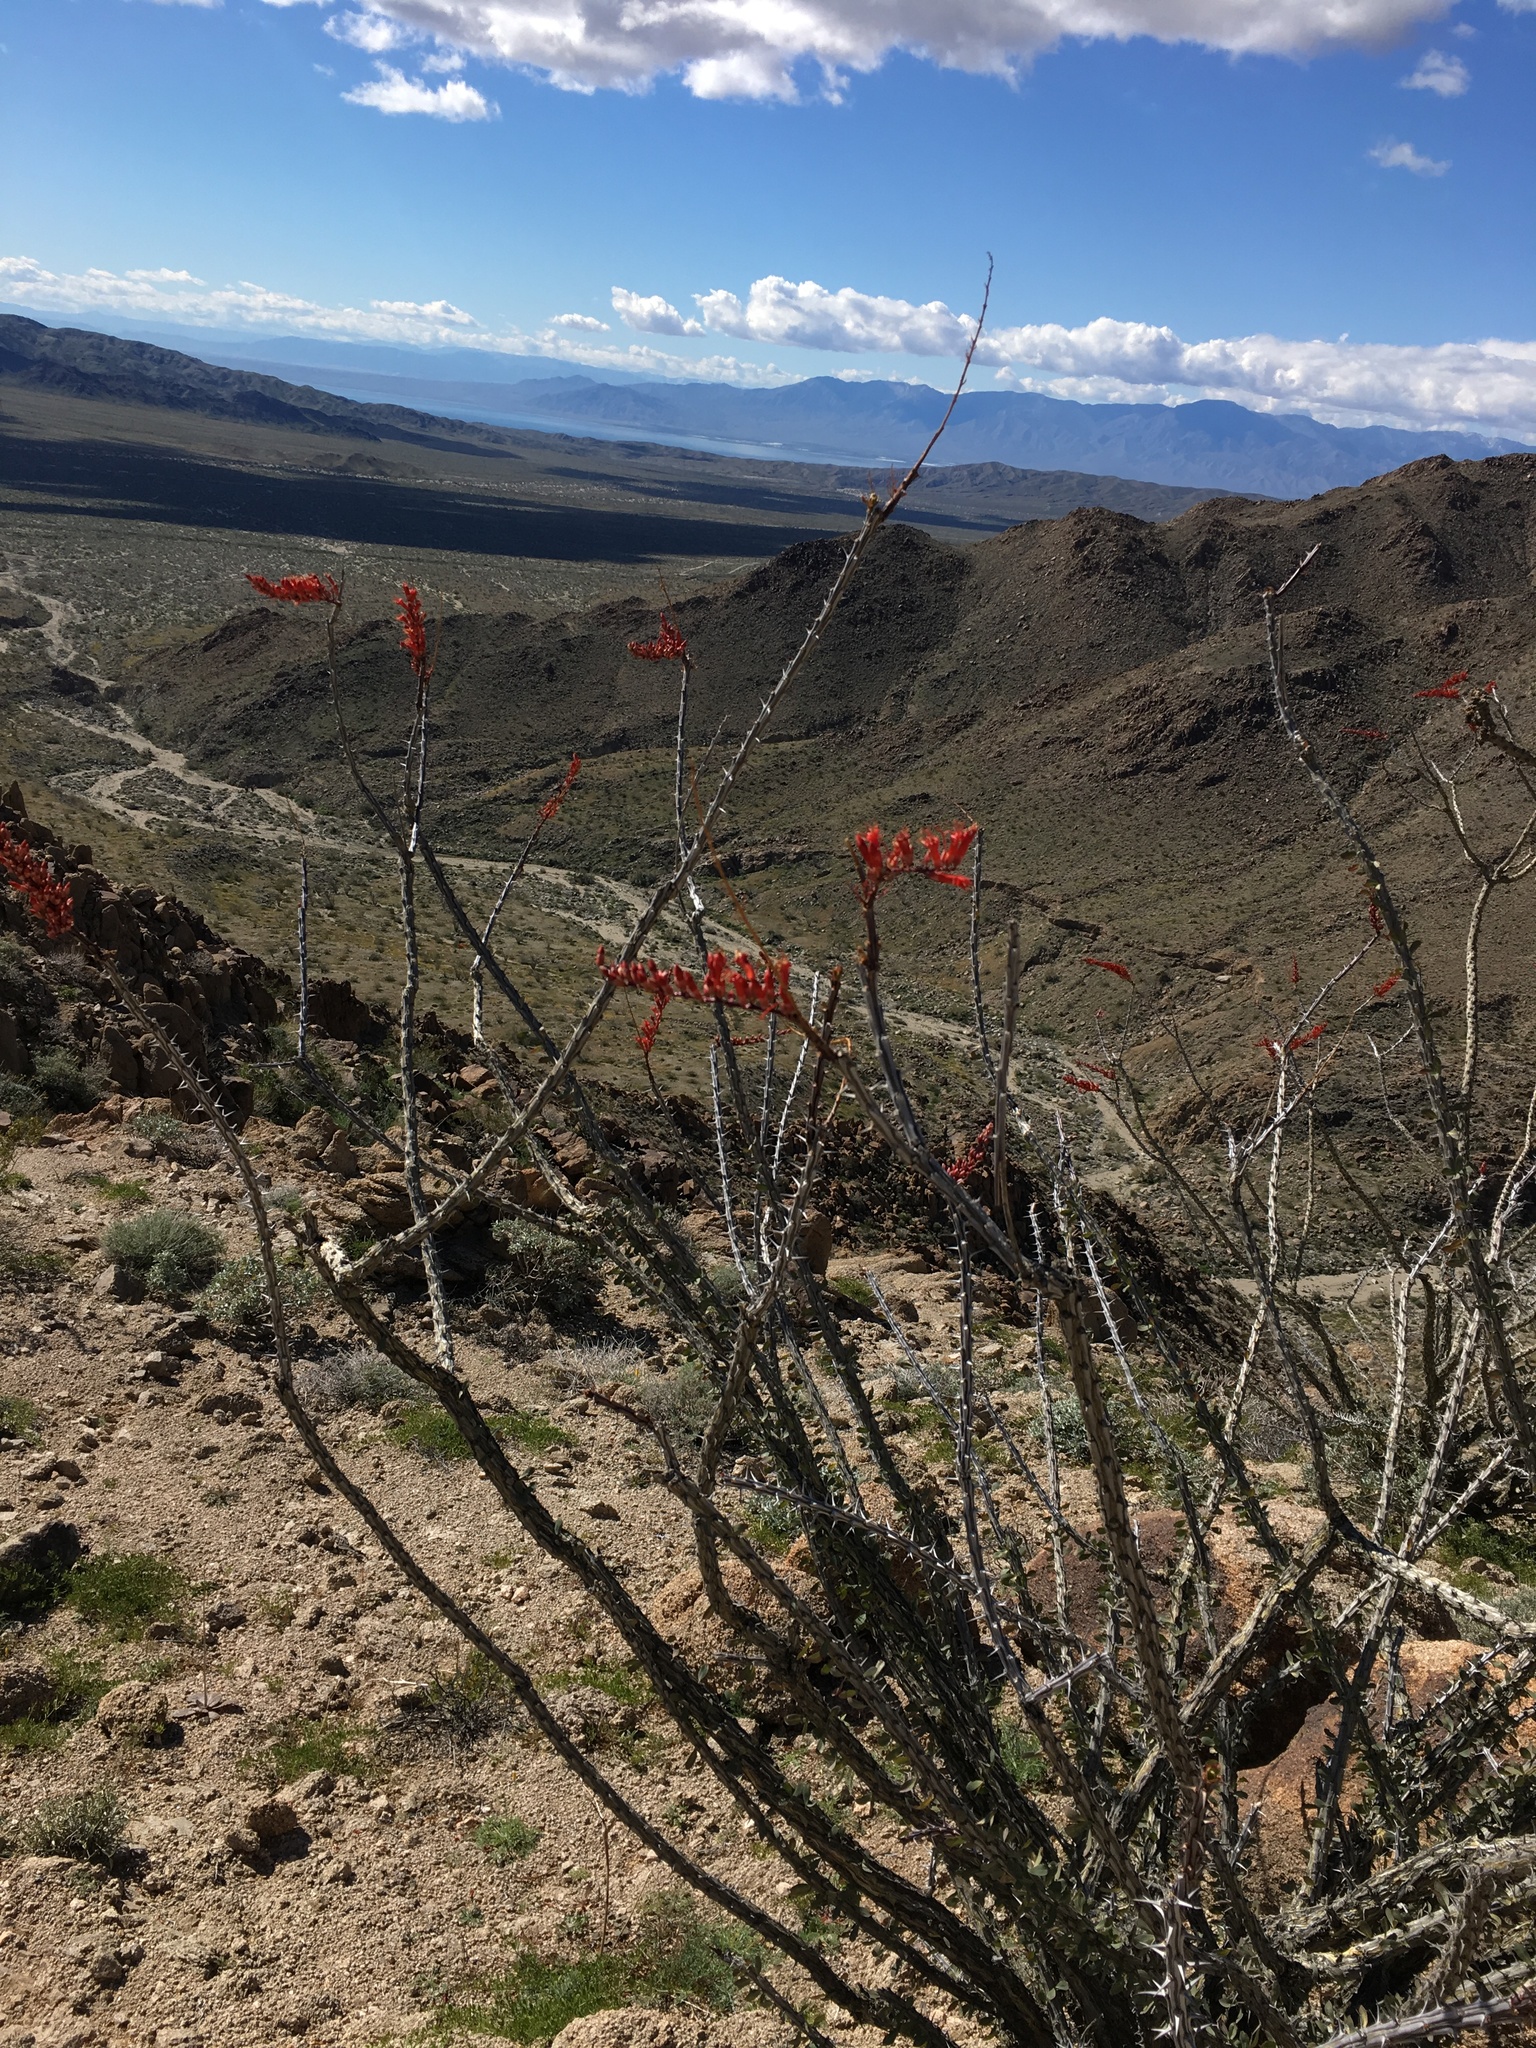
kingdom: Plantae
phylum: Tracheophyta
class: Magnoliopsida
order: Ericales
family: Fouquieriaceae
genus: Fouquieria
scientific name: Fouquieria splendens
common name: Vine-cactus
